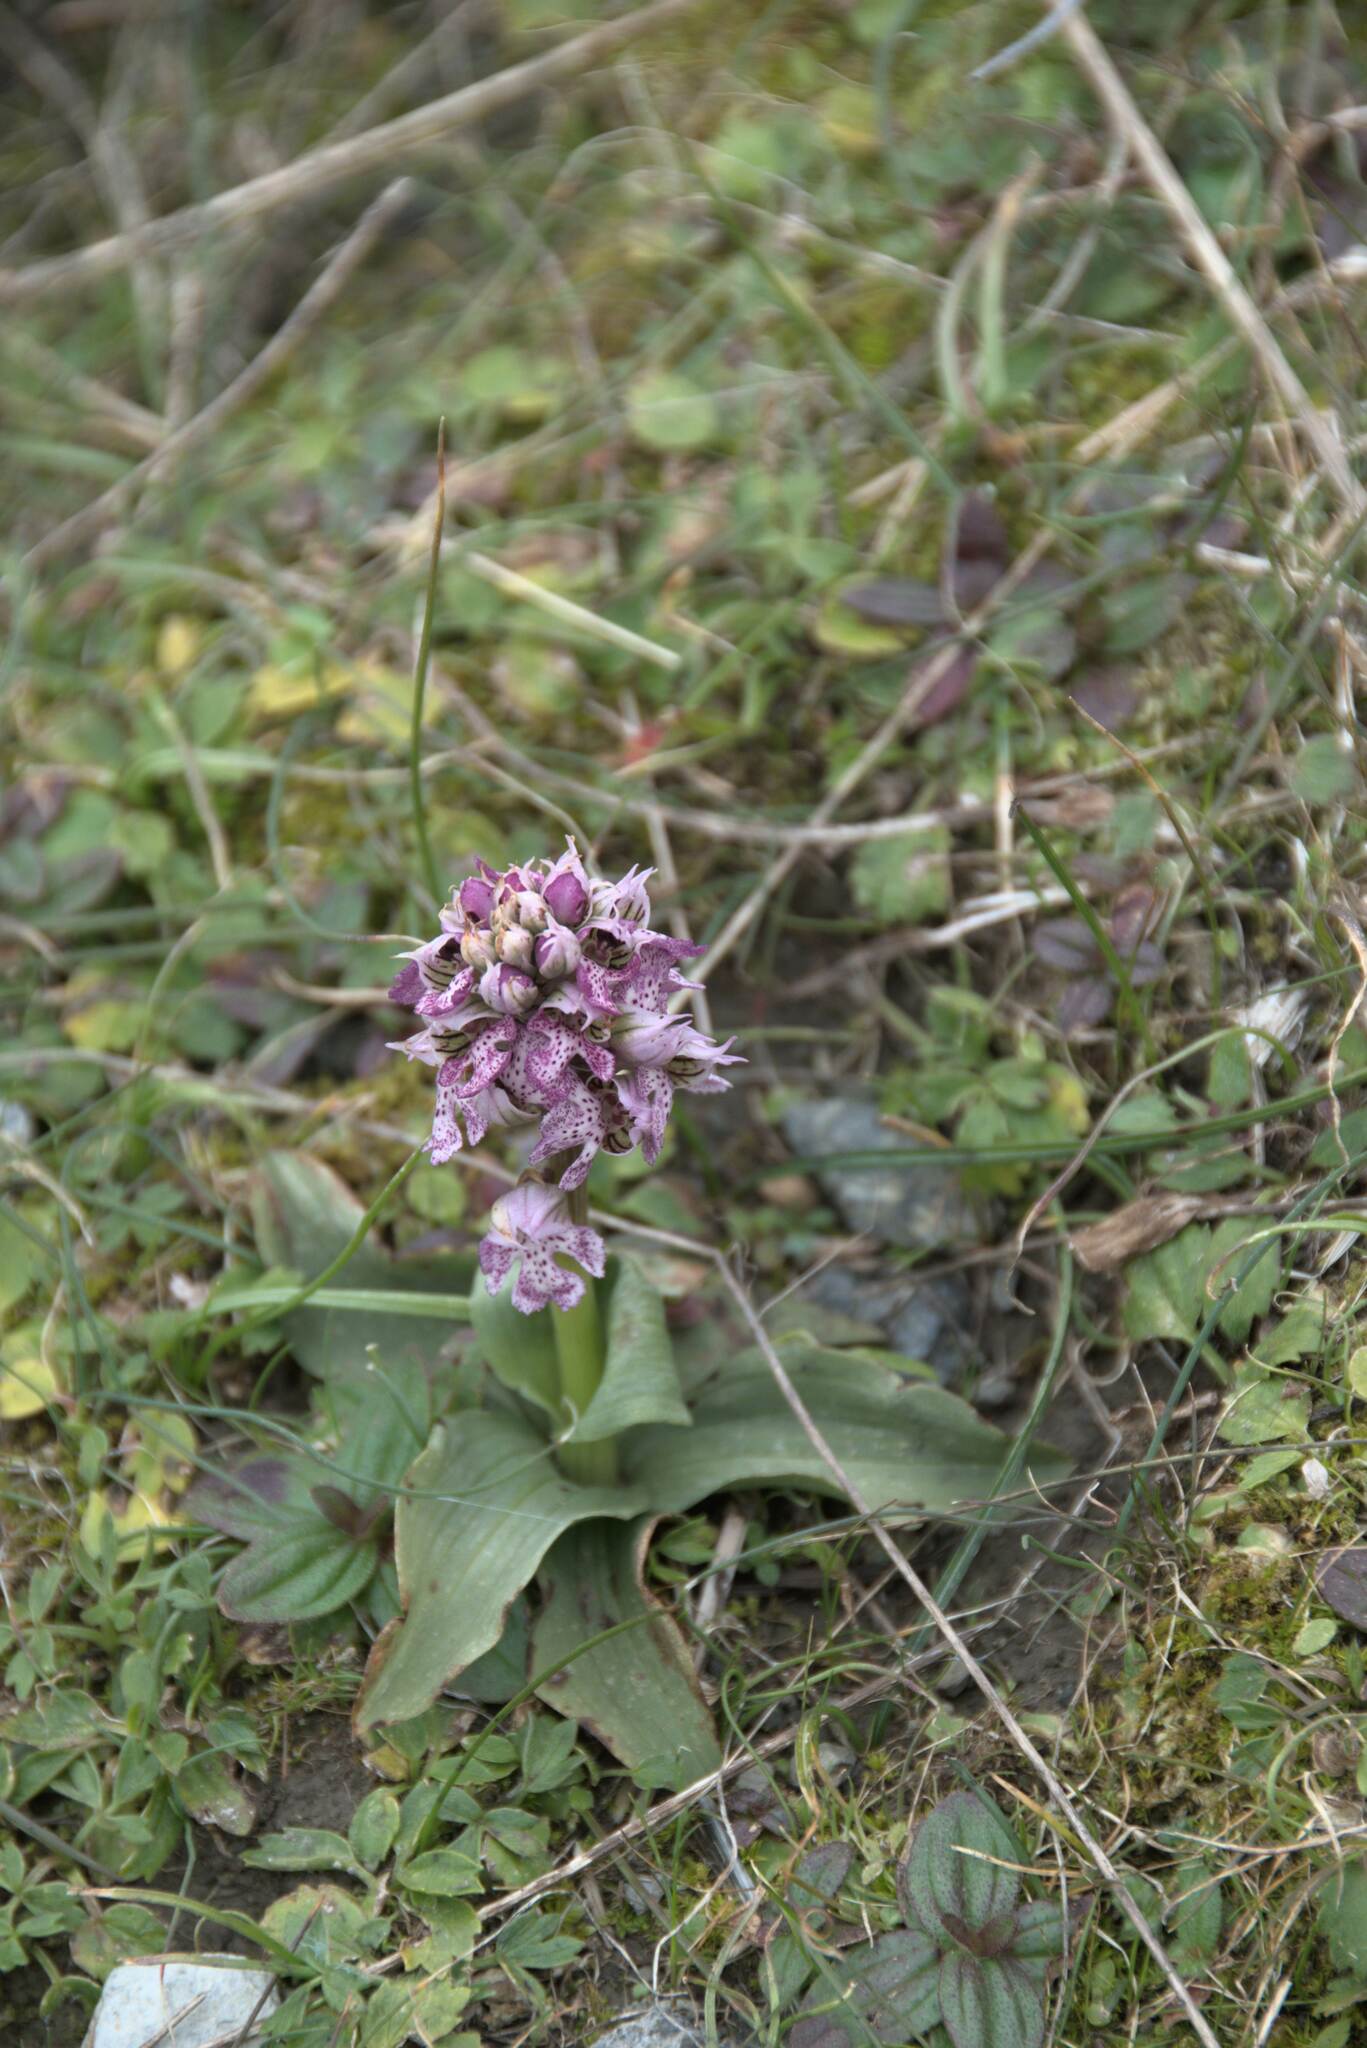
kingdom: Plantae
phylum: Tracheophyta
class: Liliopsida
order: Asparagales
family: Orchidaceae
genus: Neotinea
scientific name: Neotinea lactea
